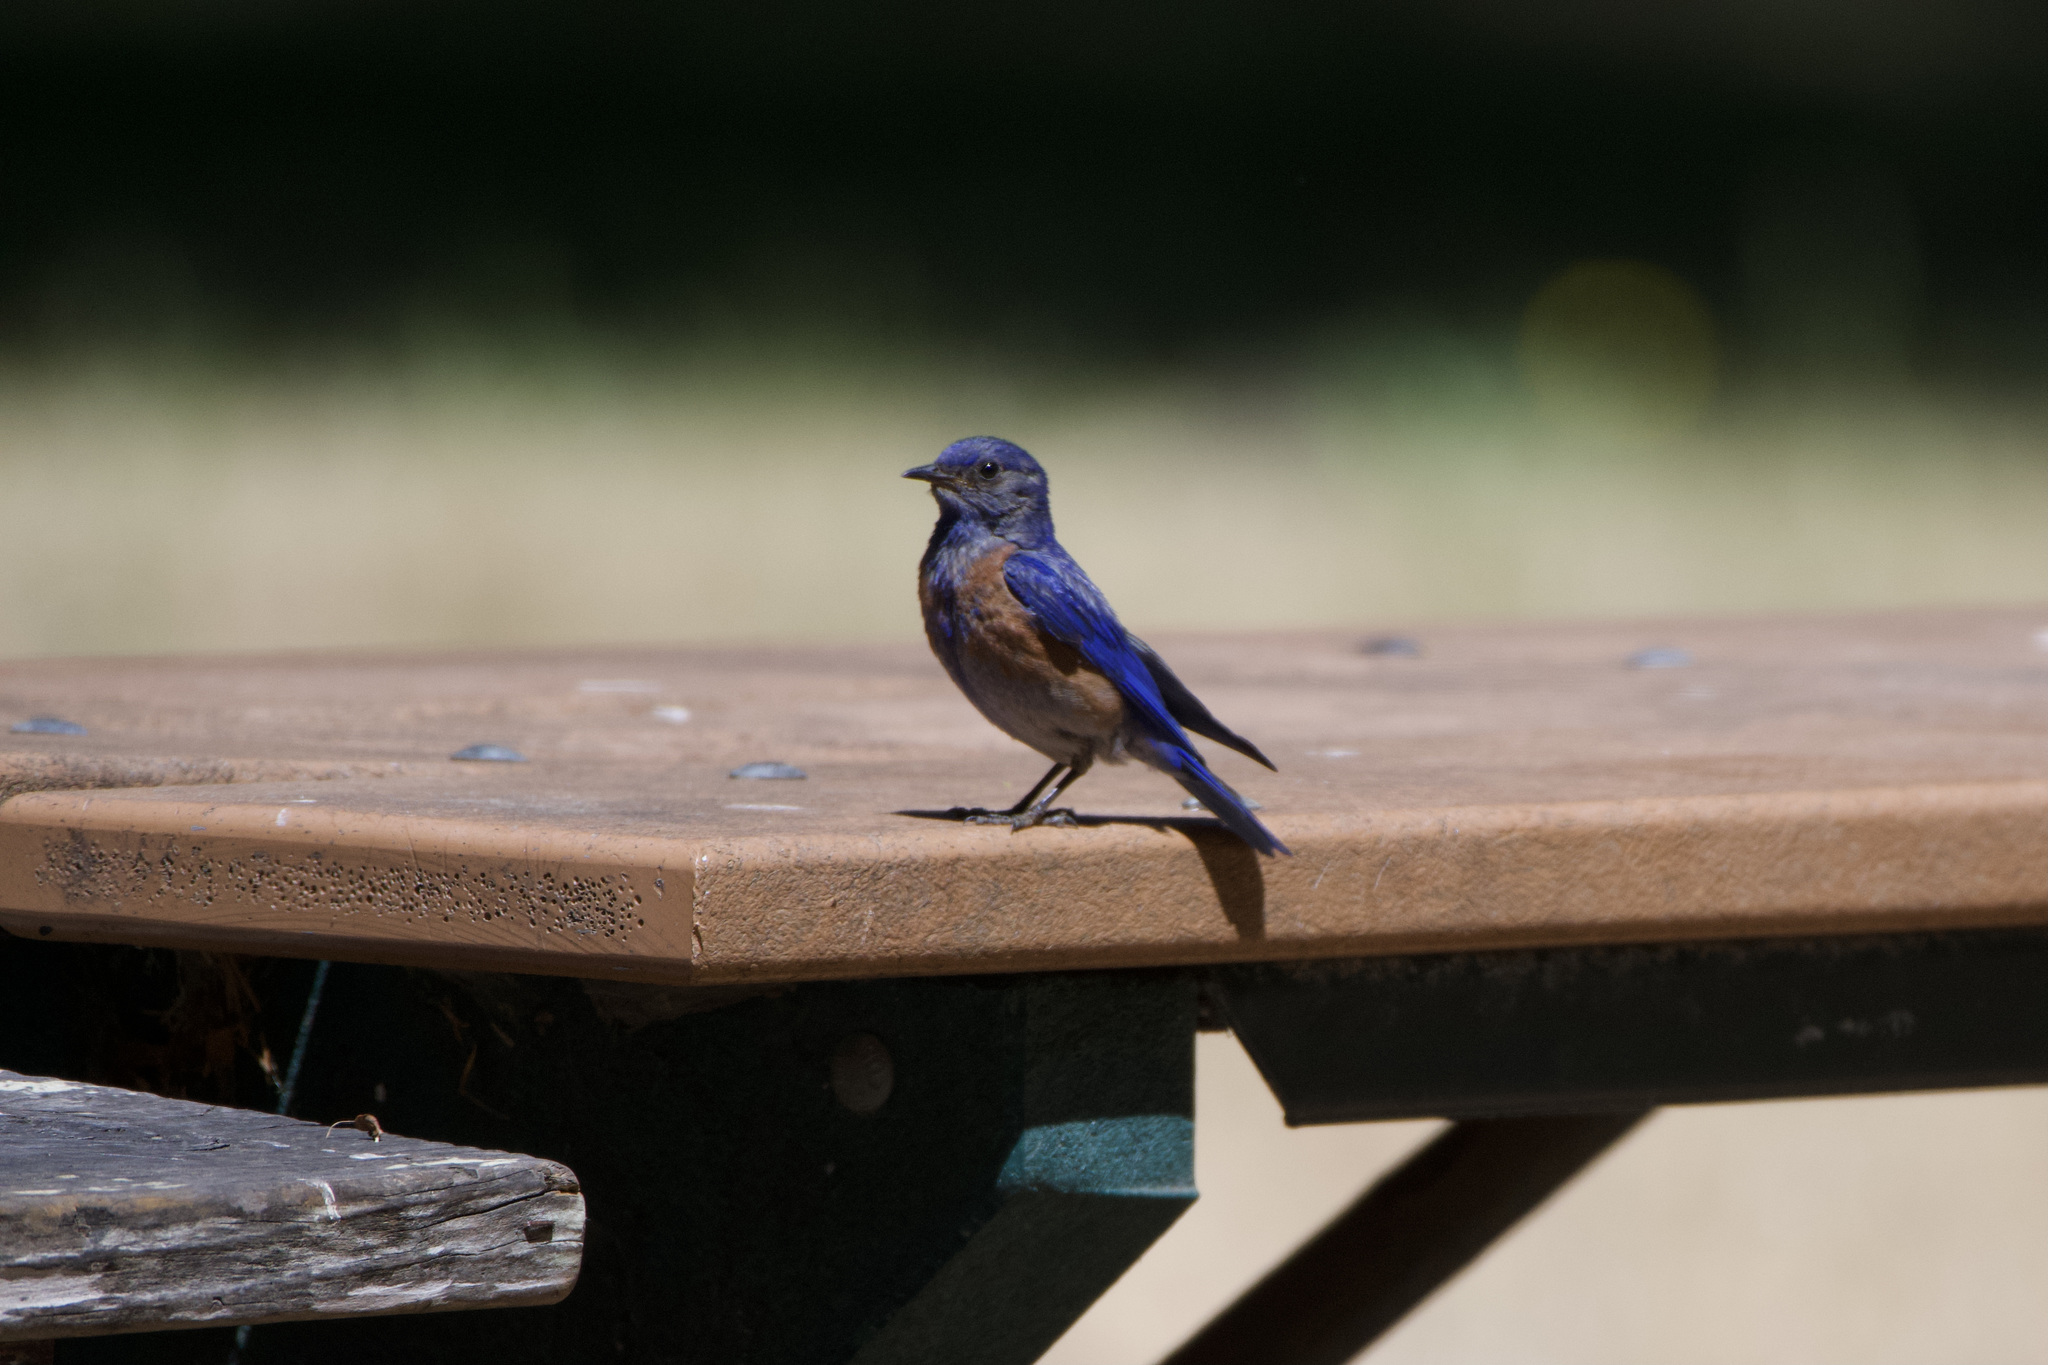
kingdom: Animalia
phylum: Chordata
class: Aves
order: Passeriformes
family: Turdidae
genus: Sialia
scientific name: Sialia mexicana
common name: Western bluebird
